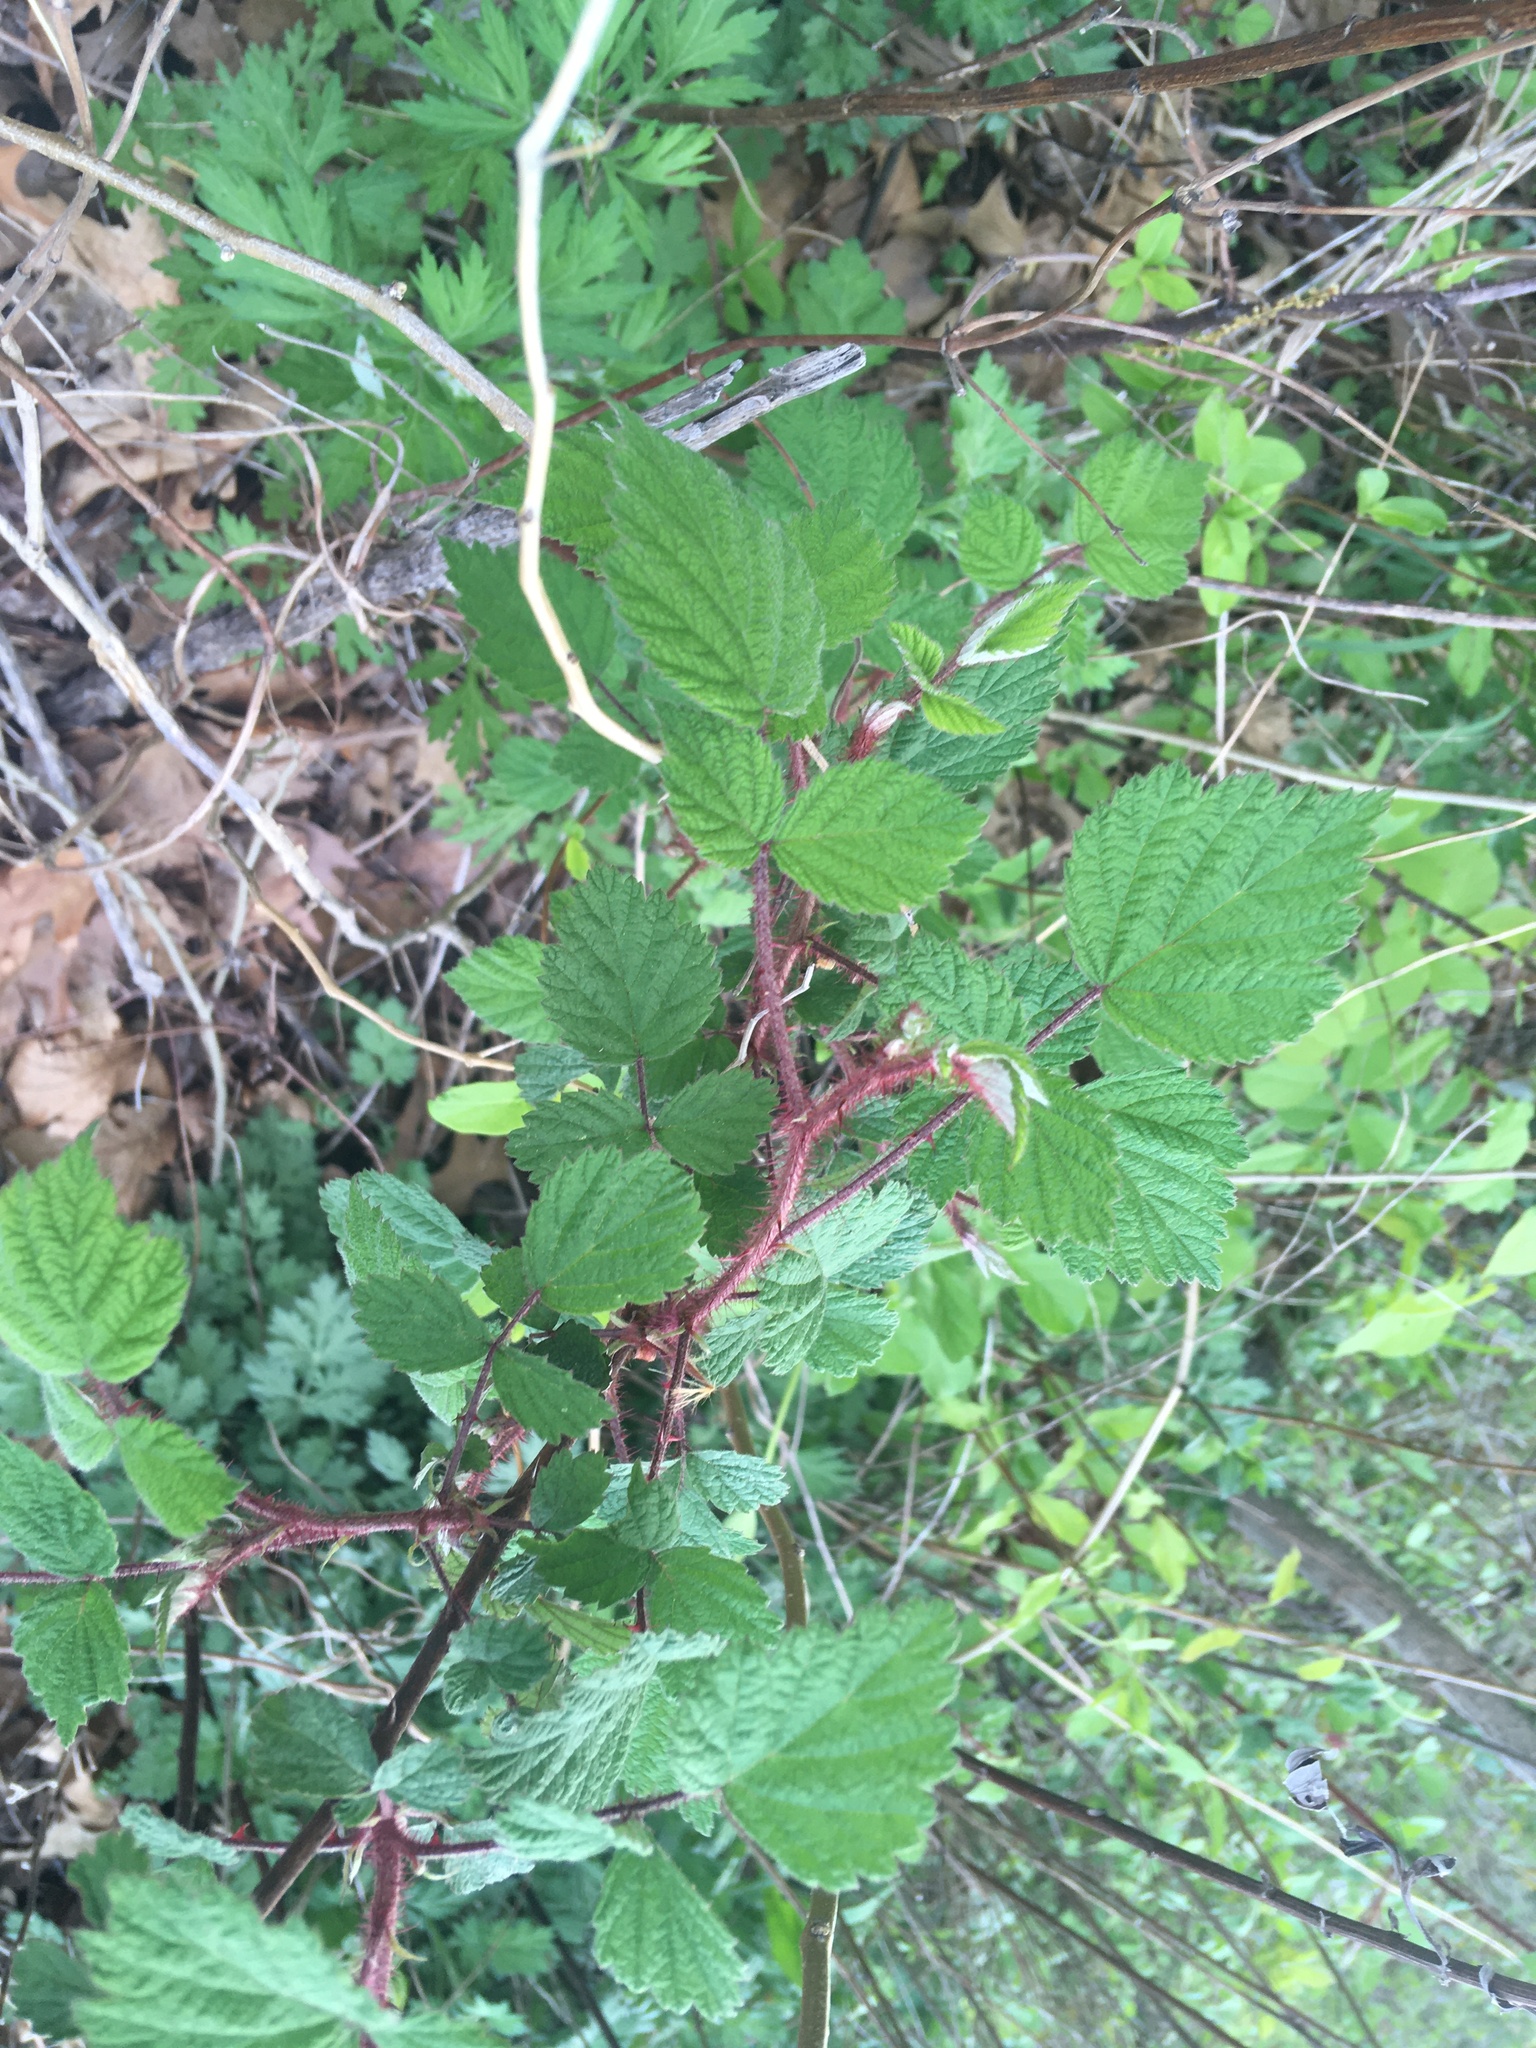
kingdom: Plantae
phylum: Tracheophyta
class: Magnoliopsida
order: Rosales
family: Rosaceae
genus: Rubus
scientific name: Rubus phoenicolasius
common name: Japanese wineberry
